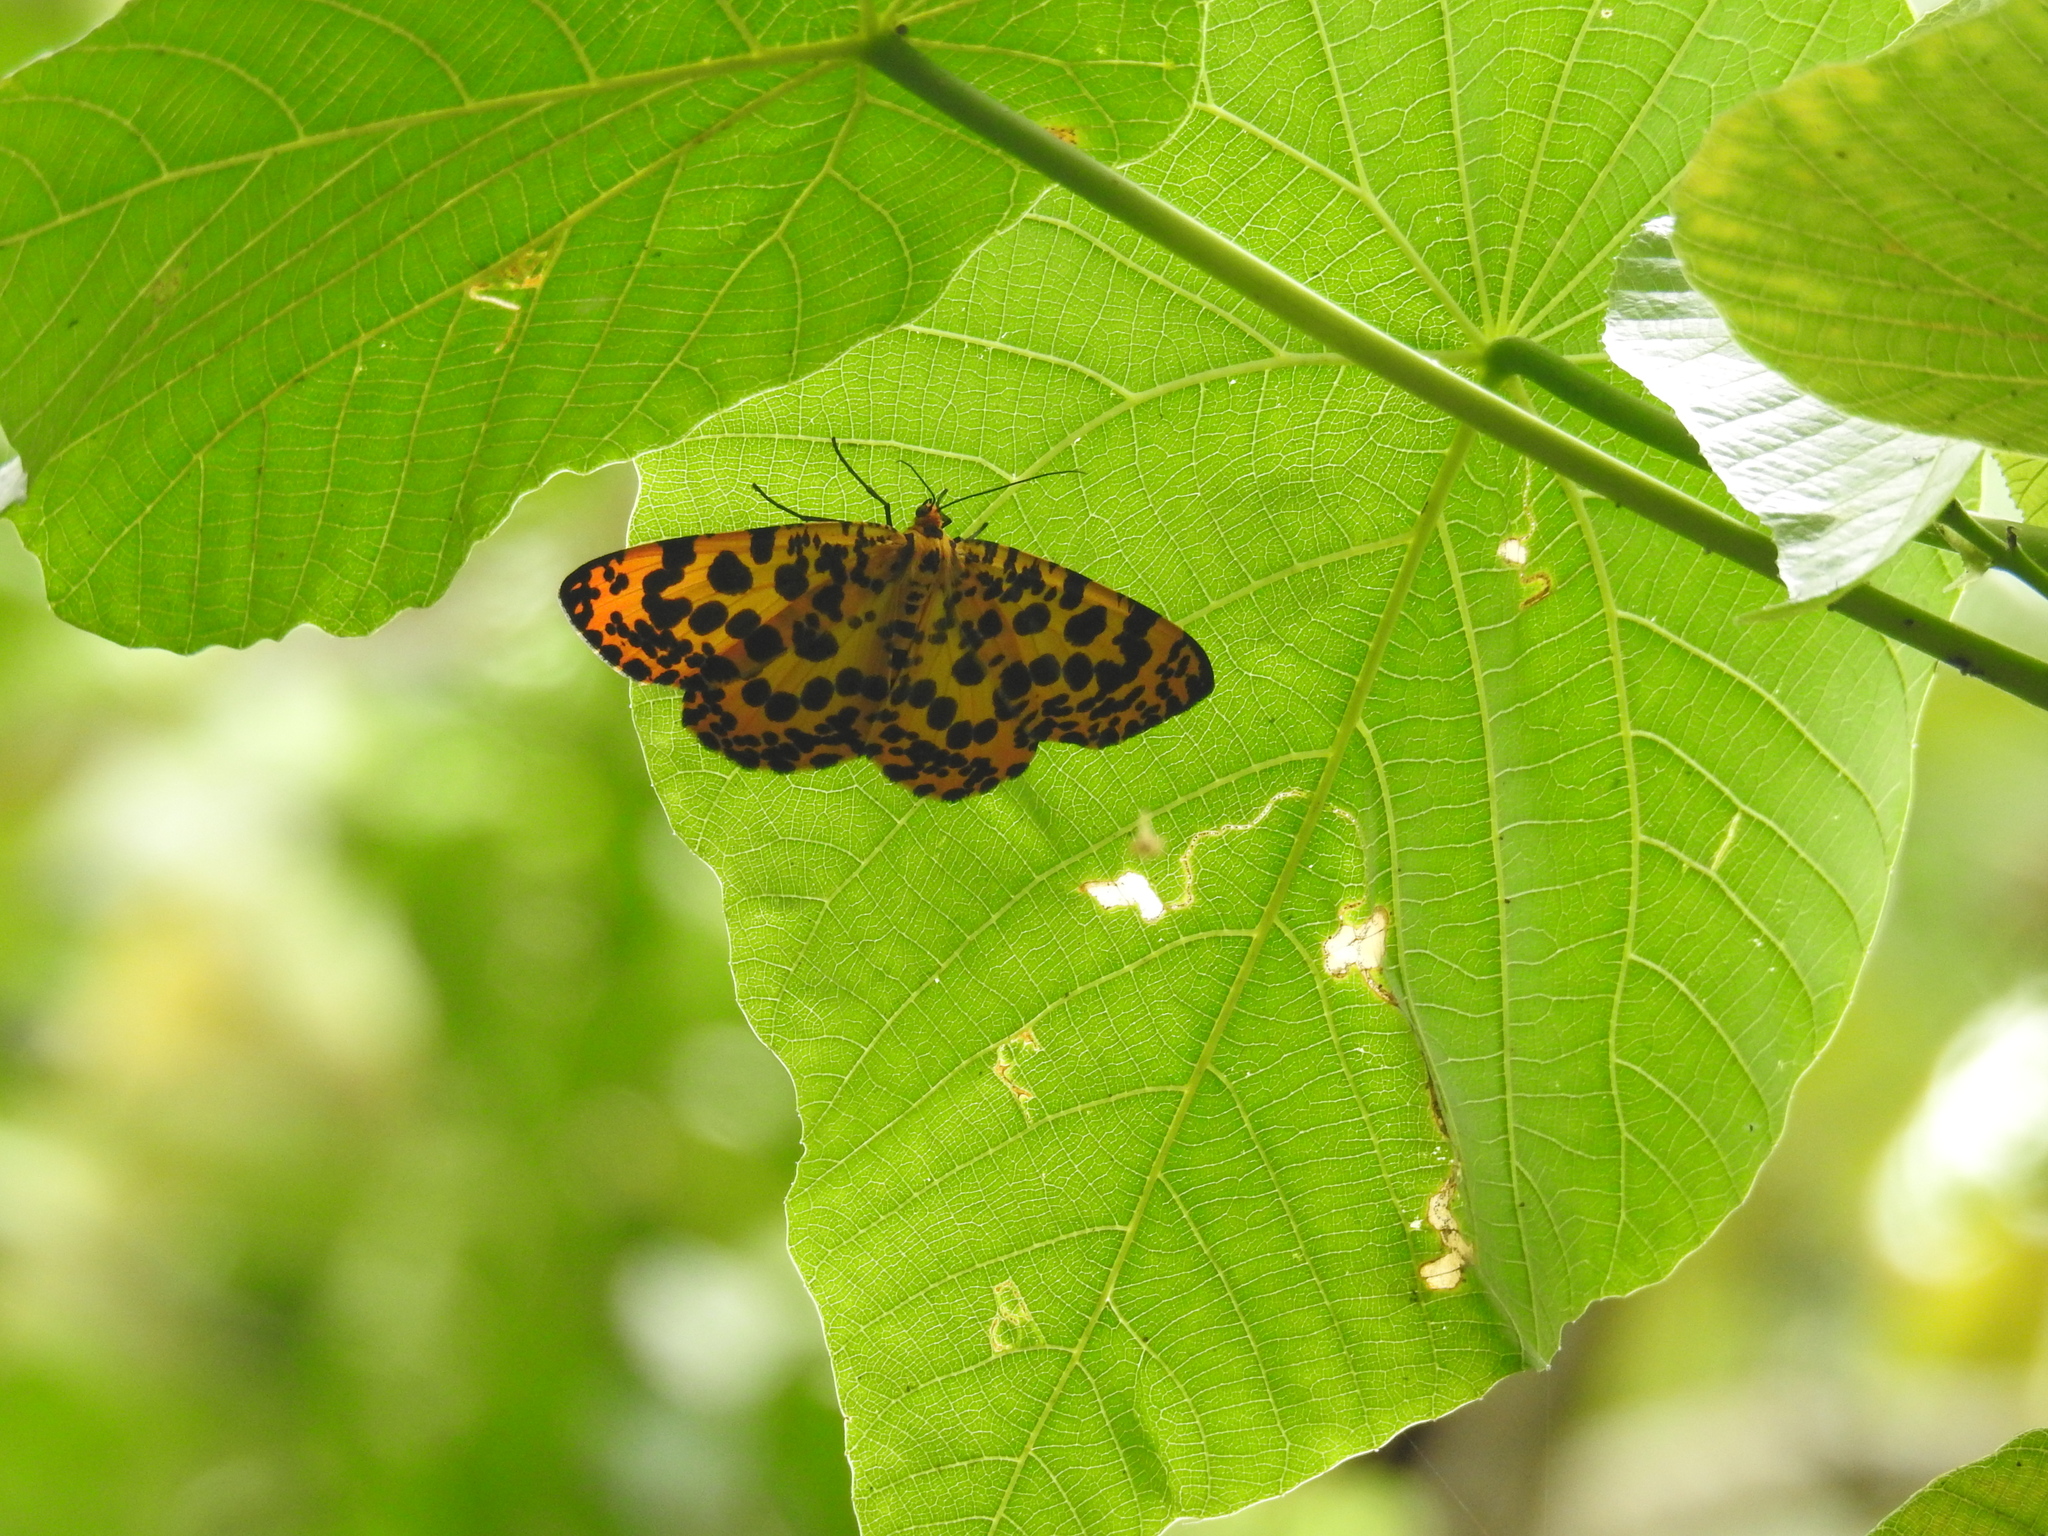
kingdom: Animalia
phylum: Arthropoda
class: Insecta
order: Lepidoptera
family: Geometridae
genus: Obeidia
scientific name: Obeidia Epobeidia tigrata
